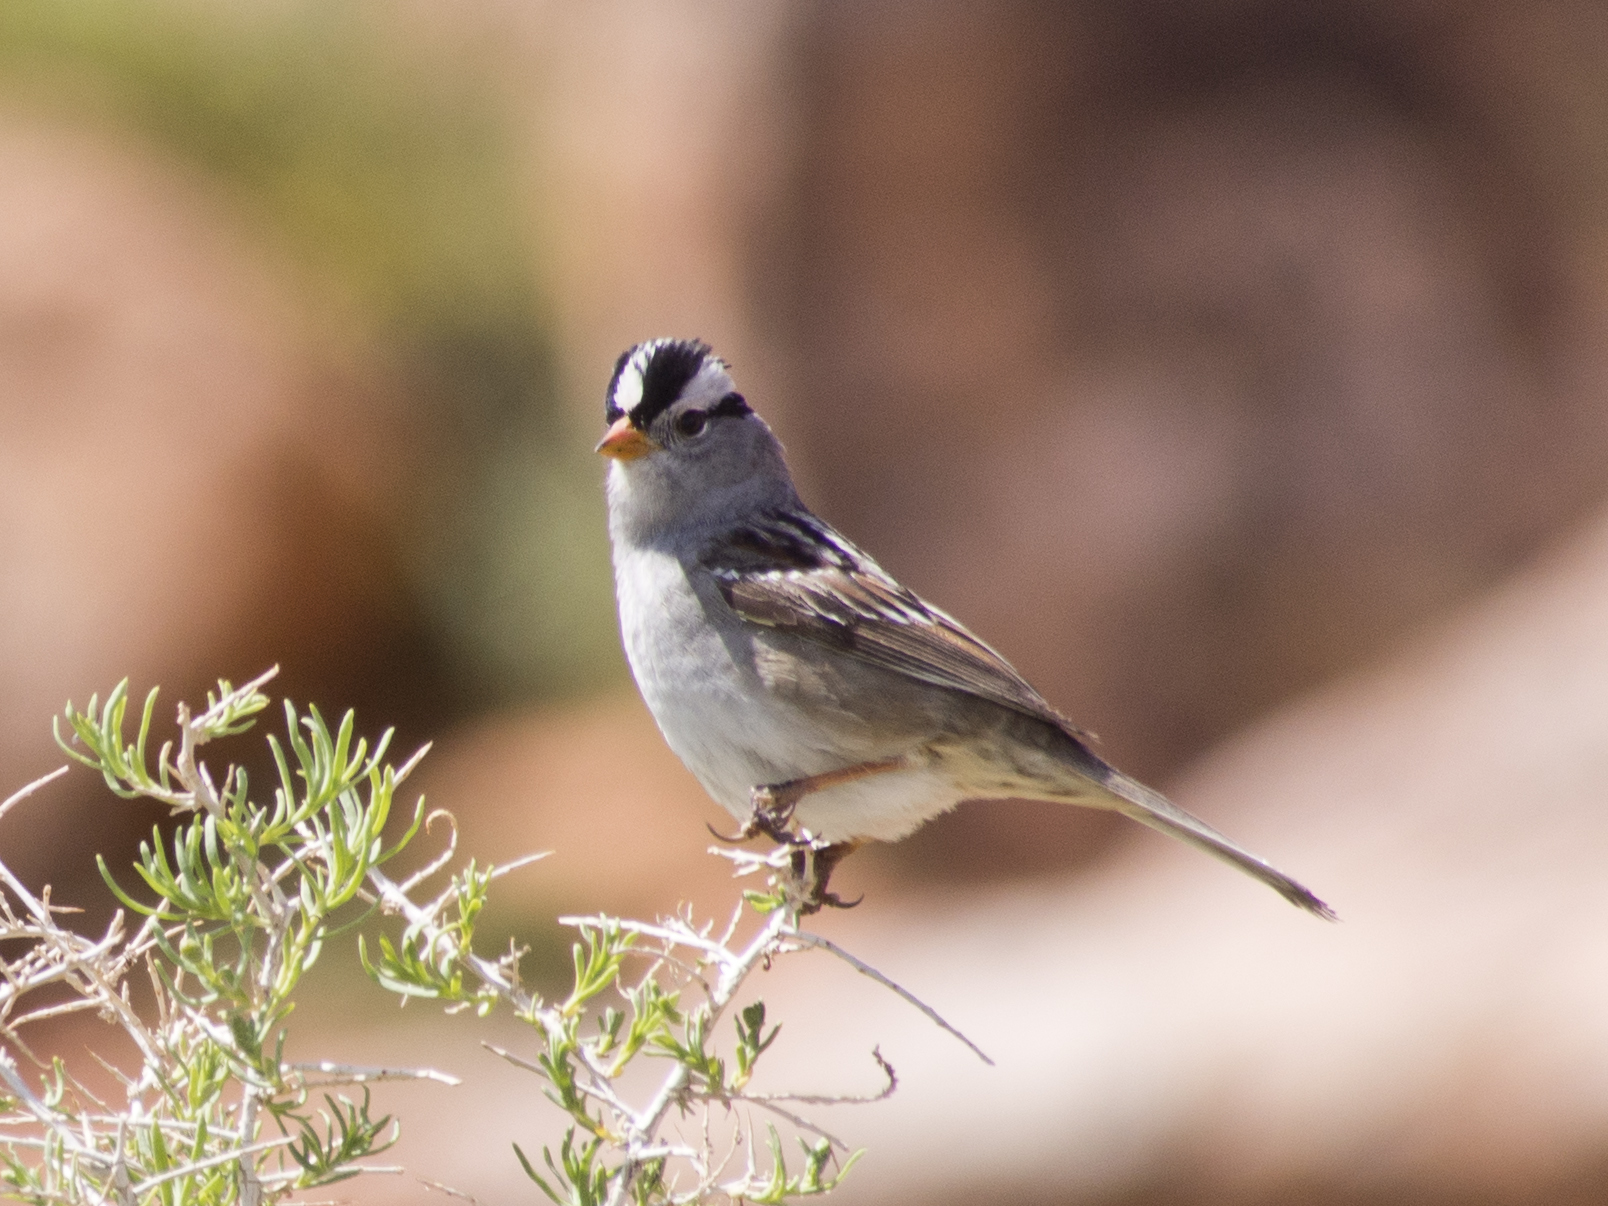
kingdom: Animalia
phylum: Chordata
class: Aves
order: Passeriformes
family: Passerellidae
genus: Zonotrichia
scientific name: Zonotrichia leucophrys
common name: White-crowned sparrow
